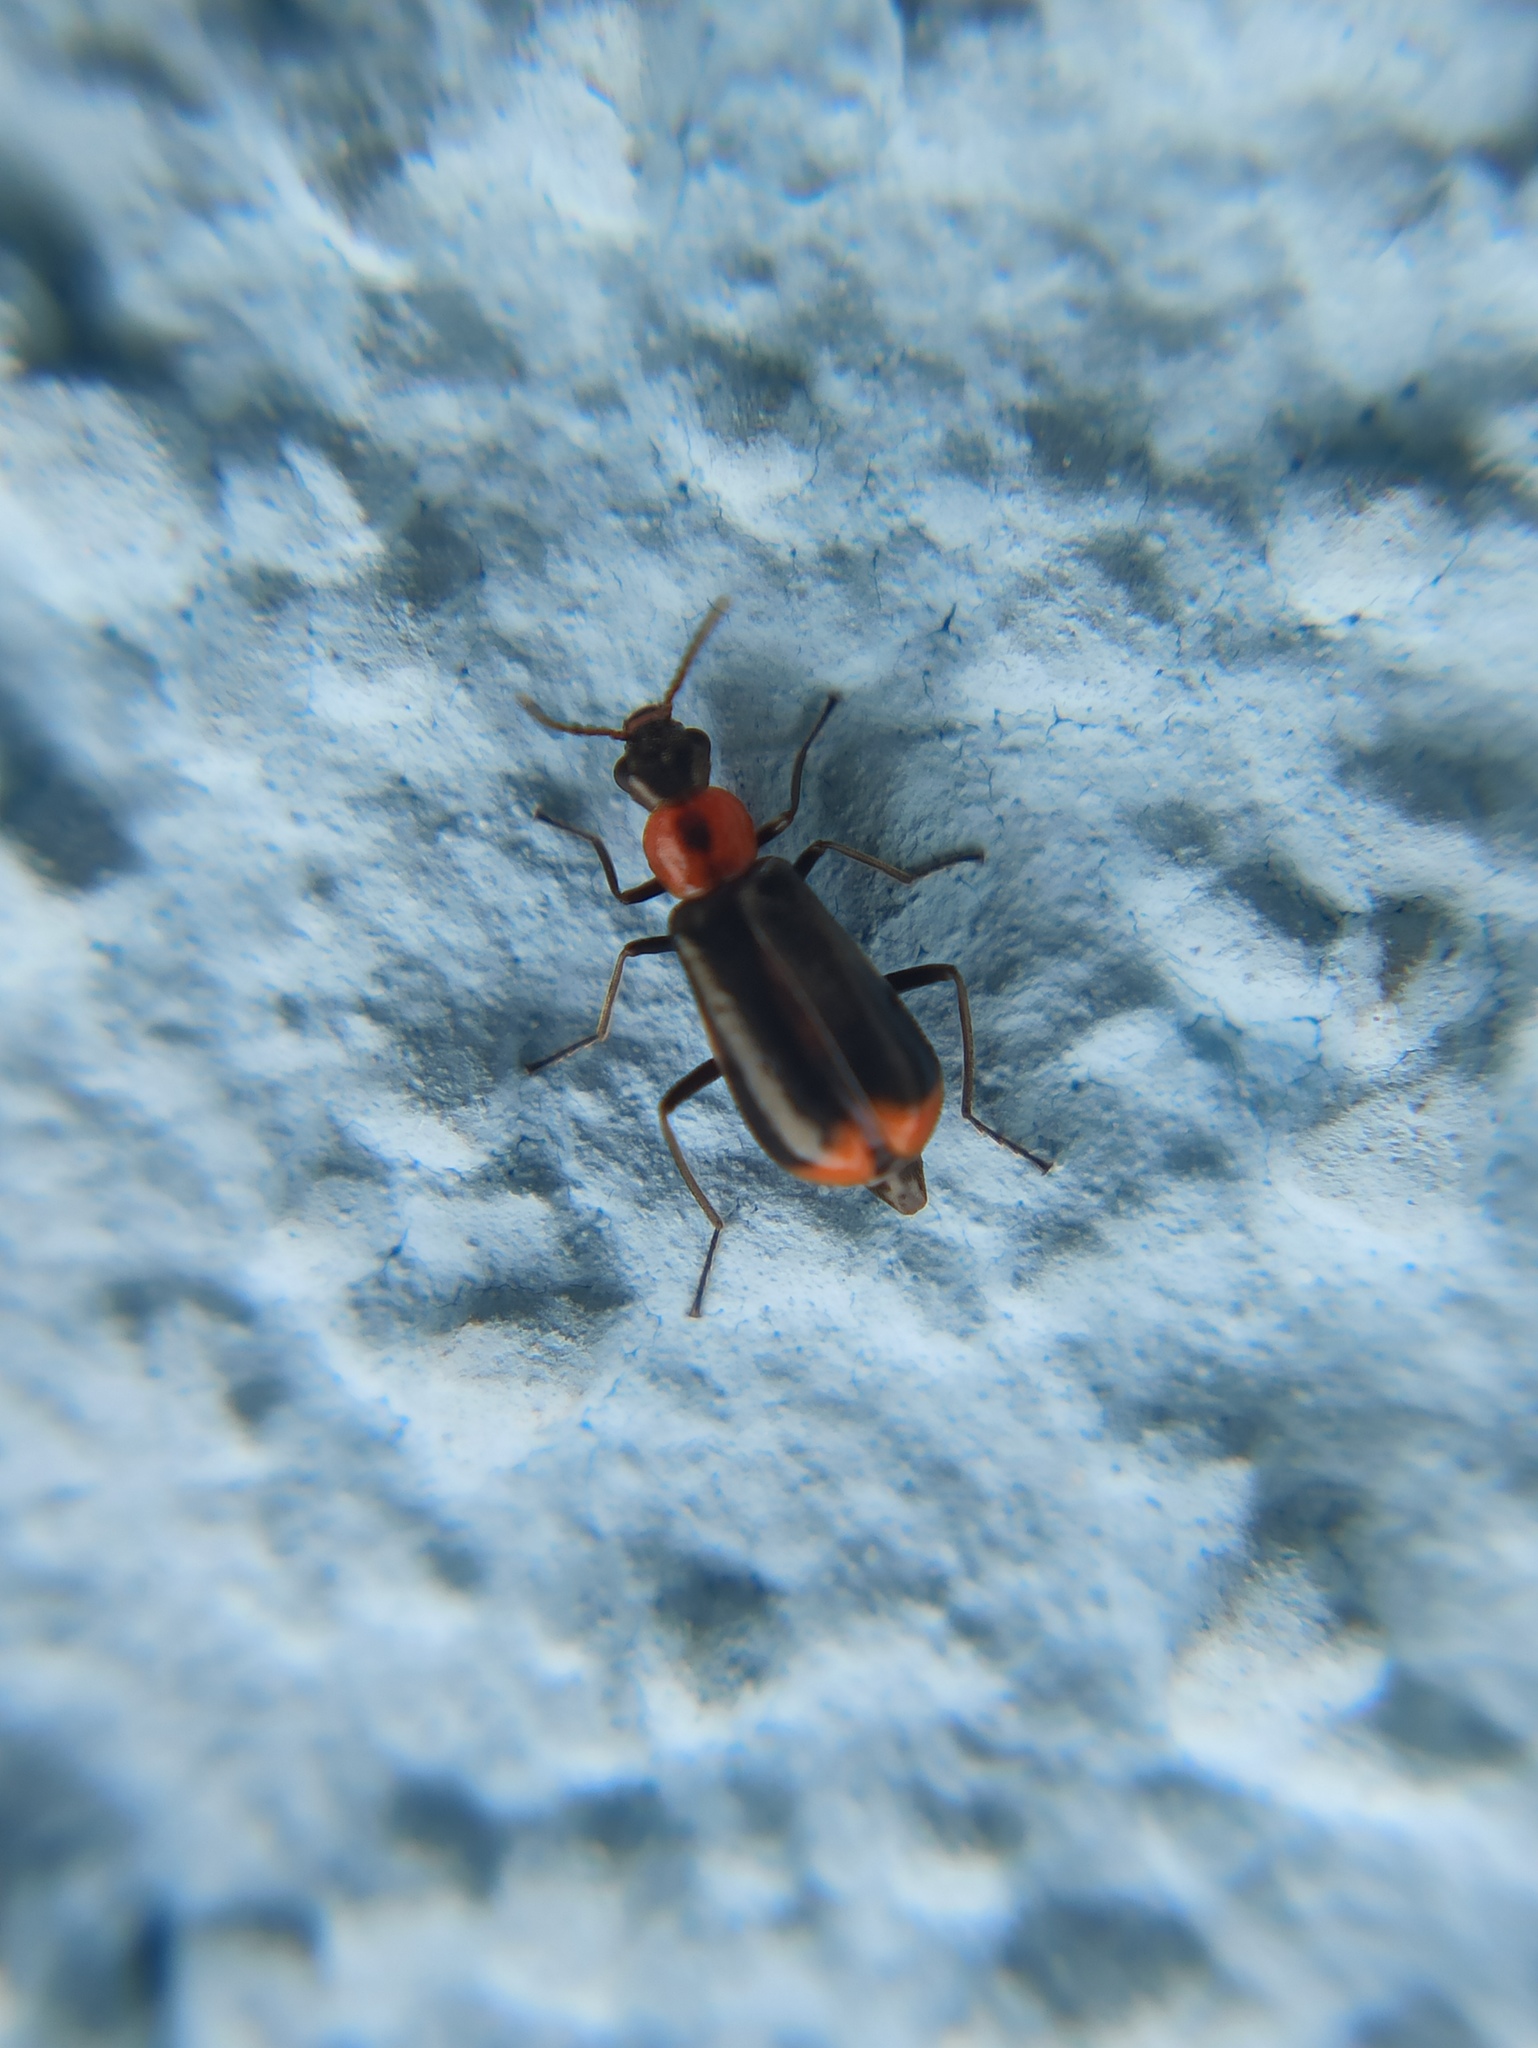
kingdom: Animalia
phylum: Arthropoda
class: Insecta
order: Coleoptera
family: Malachiidae
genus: Attalus
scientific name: Attalus minimus
